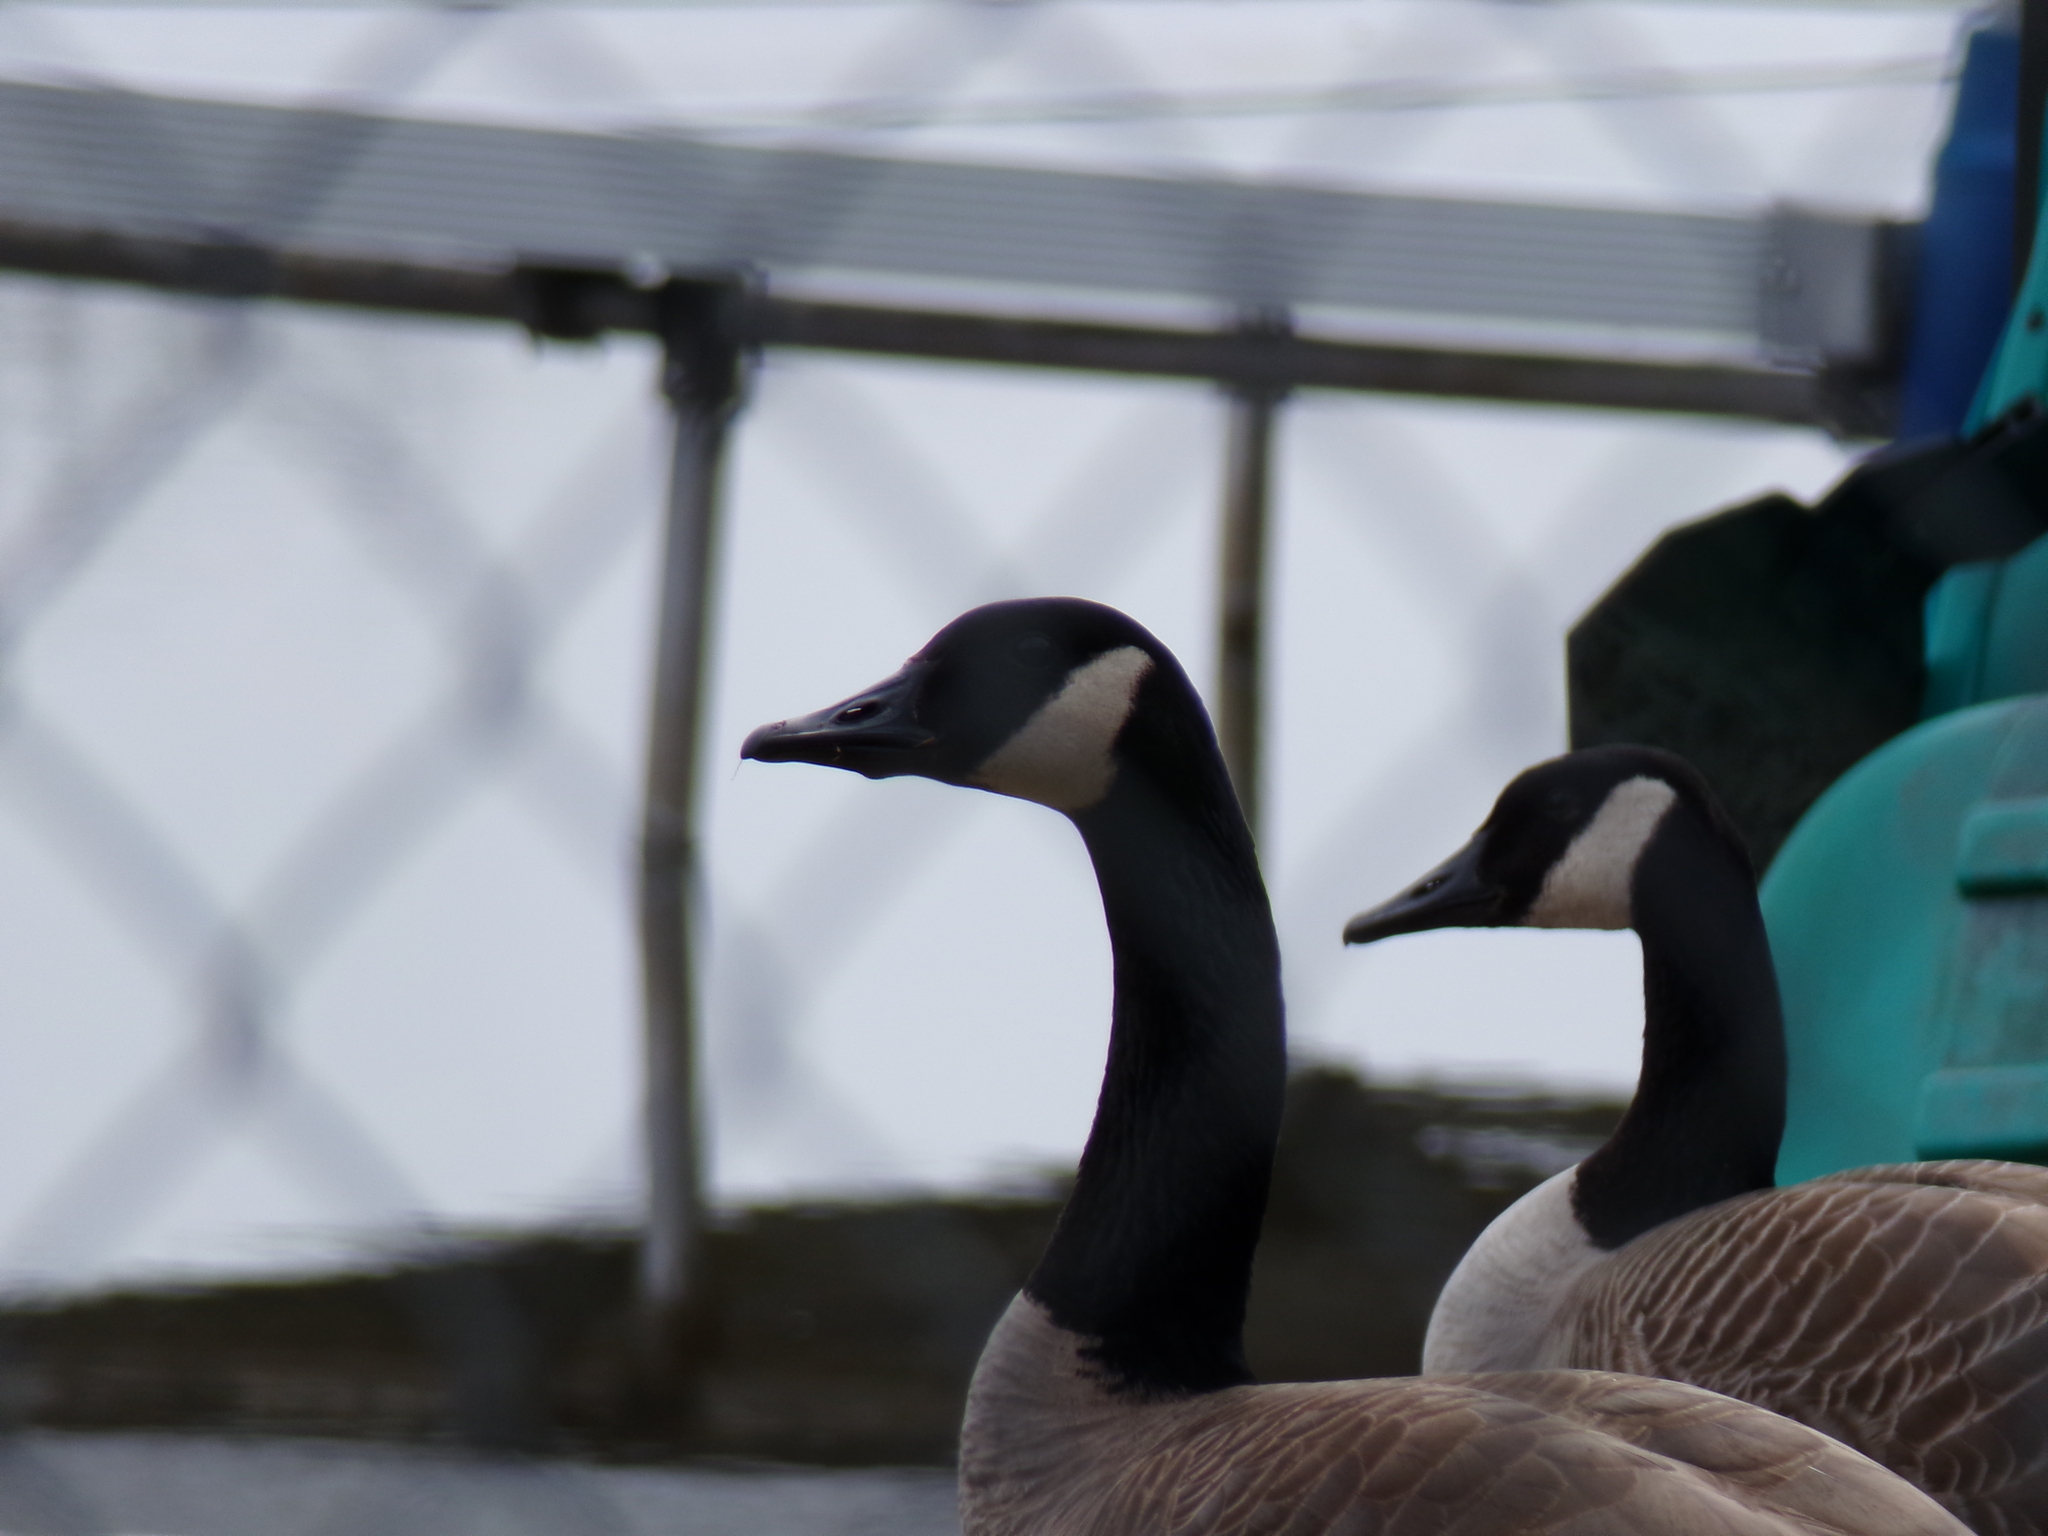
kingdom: Animalia
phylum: Chordata
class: Aves
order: Anseriformes
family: Anatidae
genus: Branta
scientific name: Branta canadensis
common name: Canada goose
